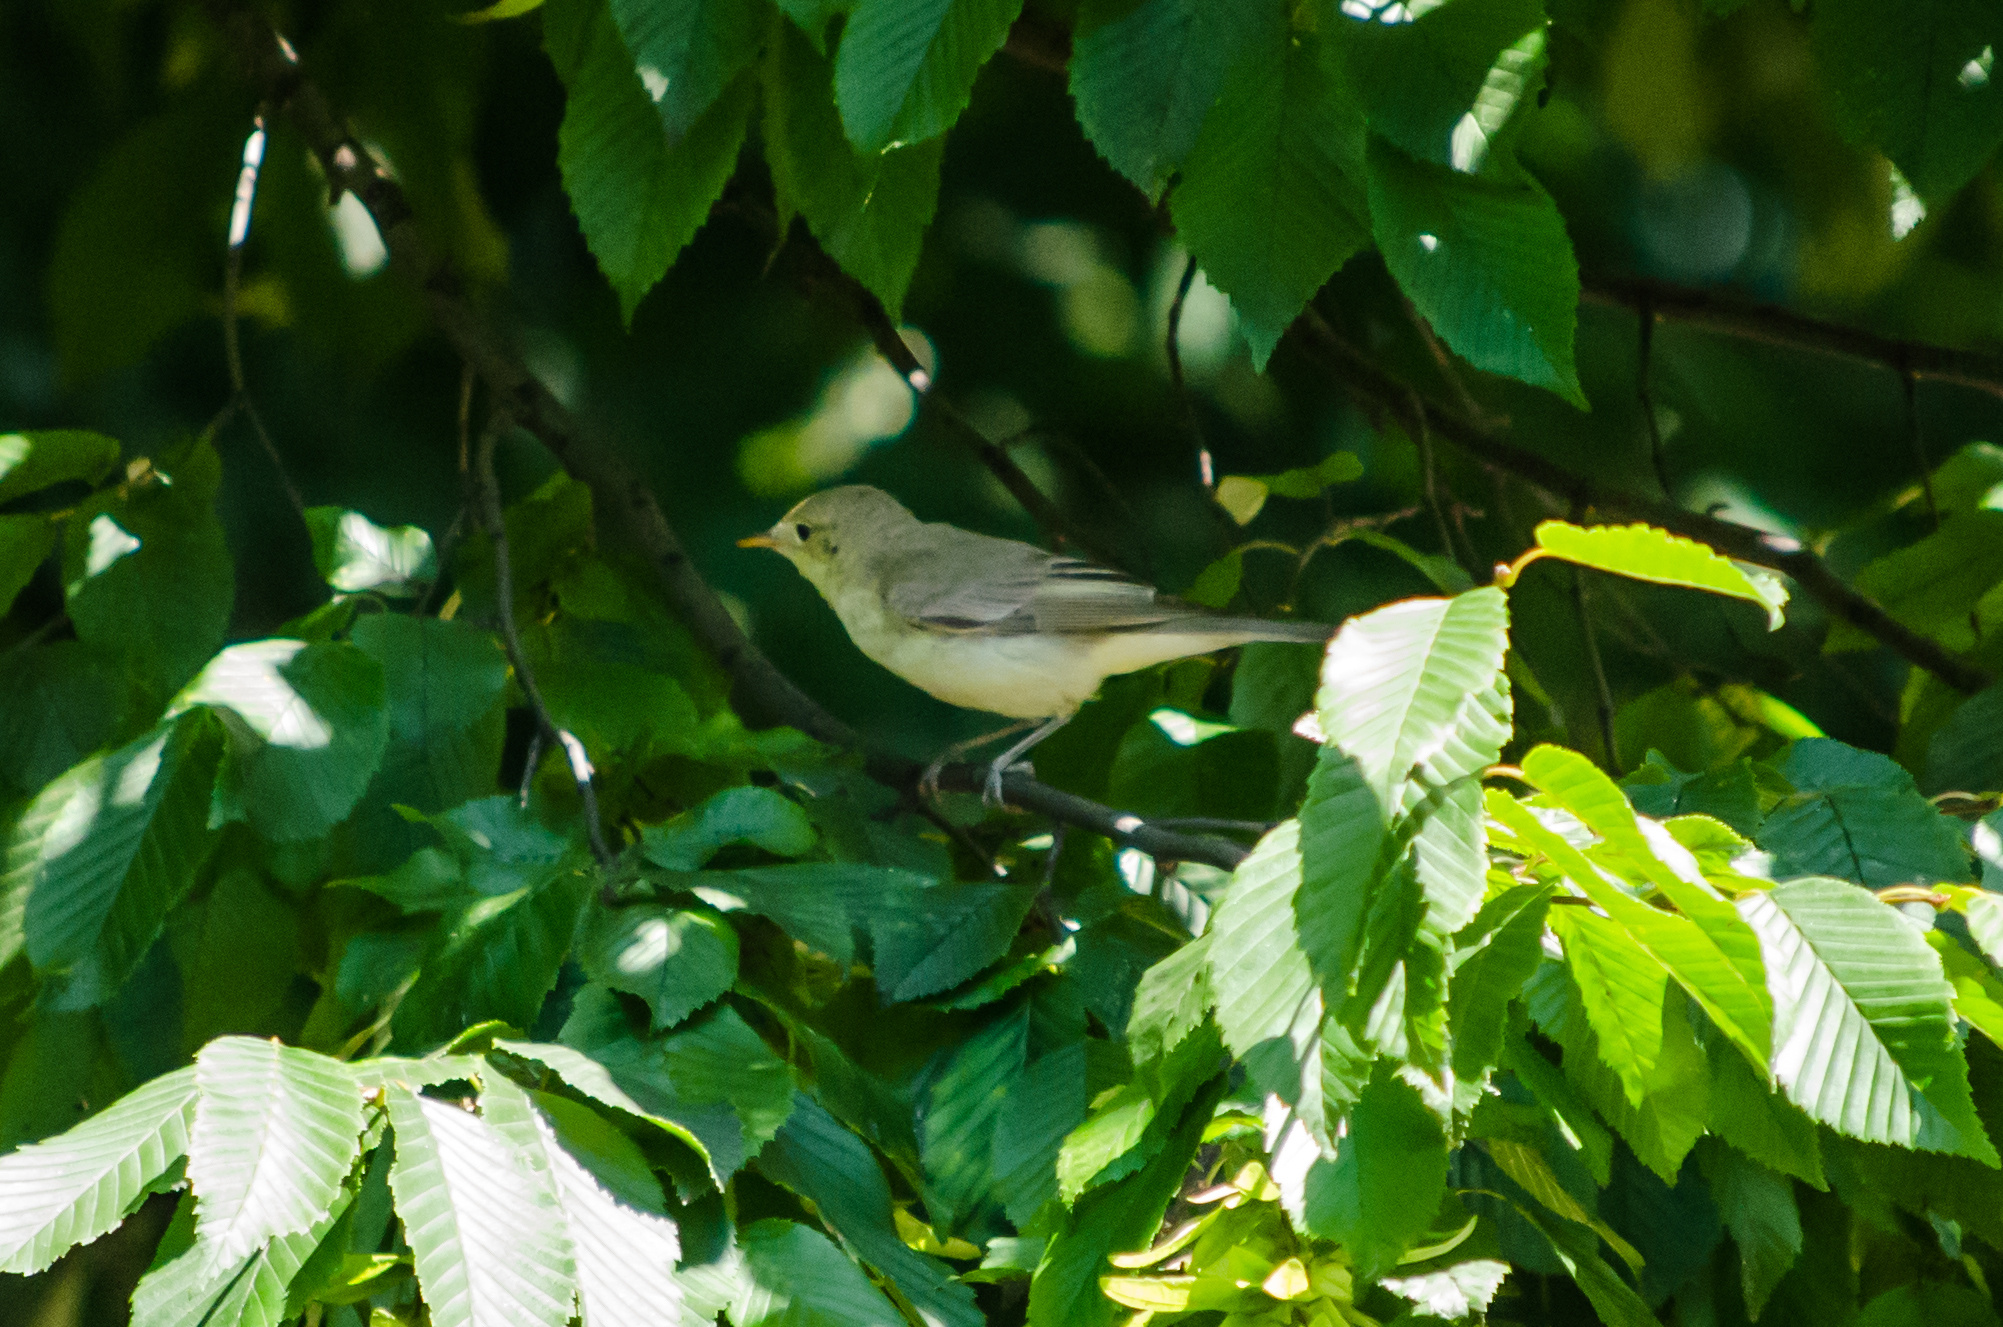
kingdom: Animalia
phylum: Chordata
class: Aves
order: Passeriformes
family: Acrocephalidae
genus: Hippolais
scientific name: Hippolais icterina
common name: Icterine warbler
